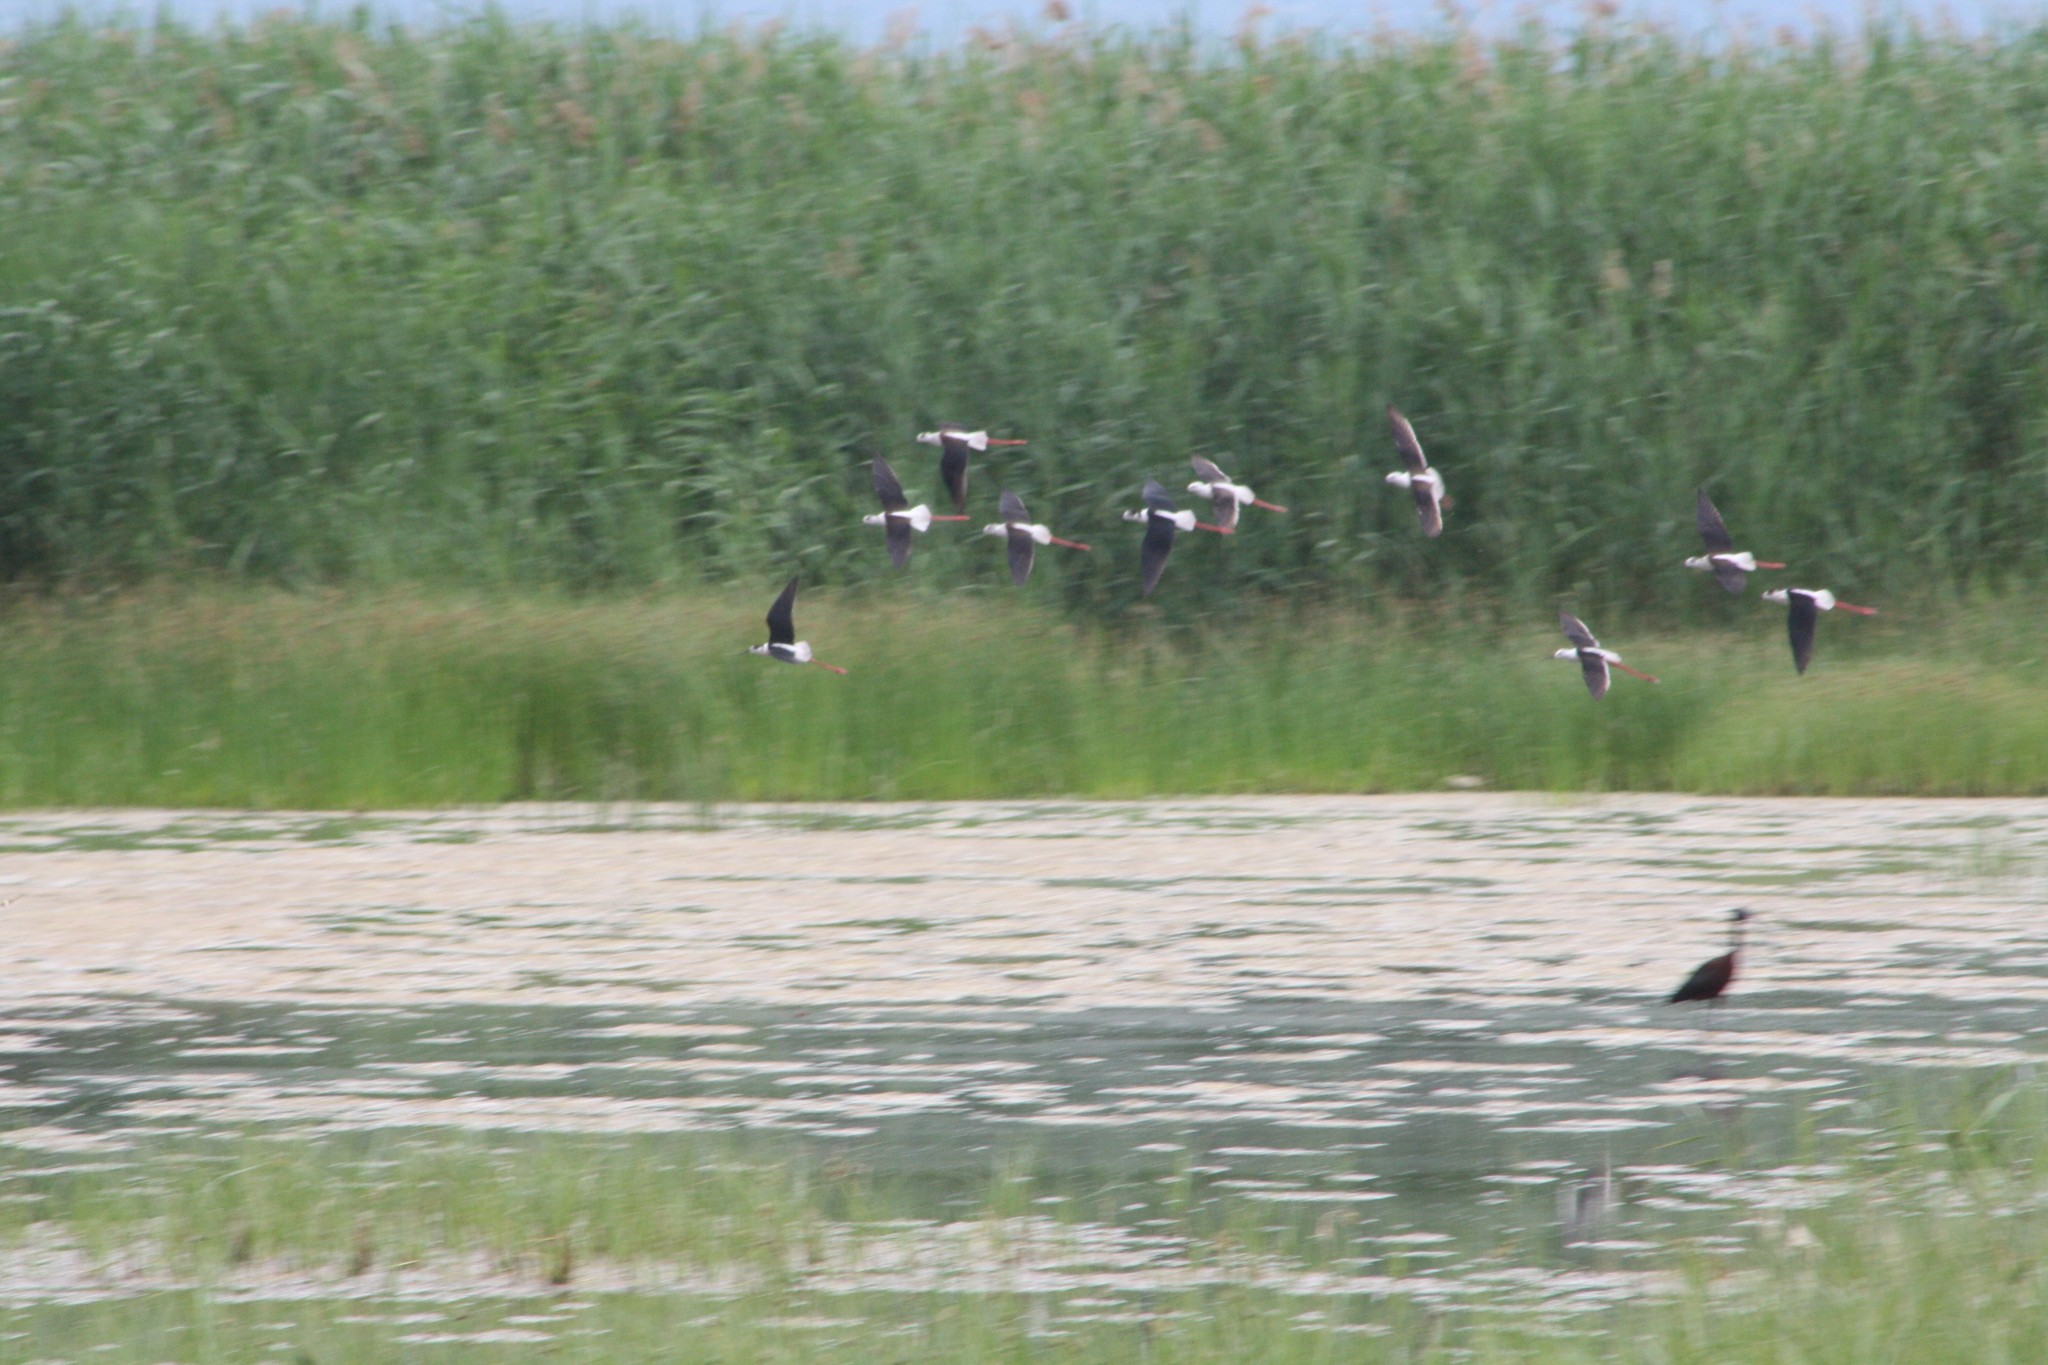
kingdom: Animalia
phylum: Chordata
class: Aves
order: Charadriiformes
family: Recurvirostridae
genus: Himantopus
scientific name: Himantopus himantopus
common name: Black-winged stilt
